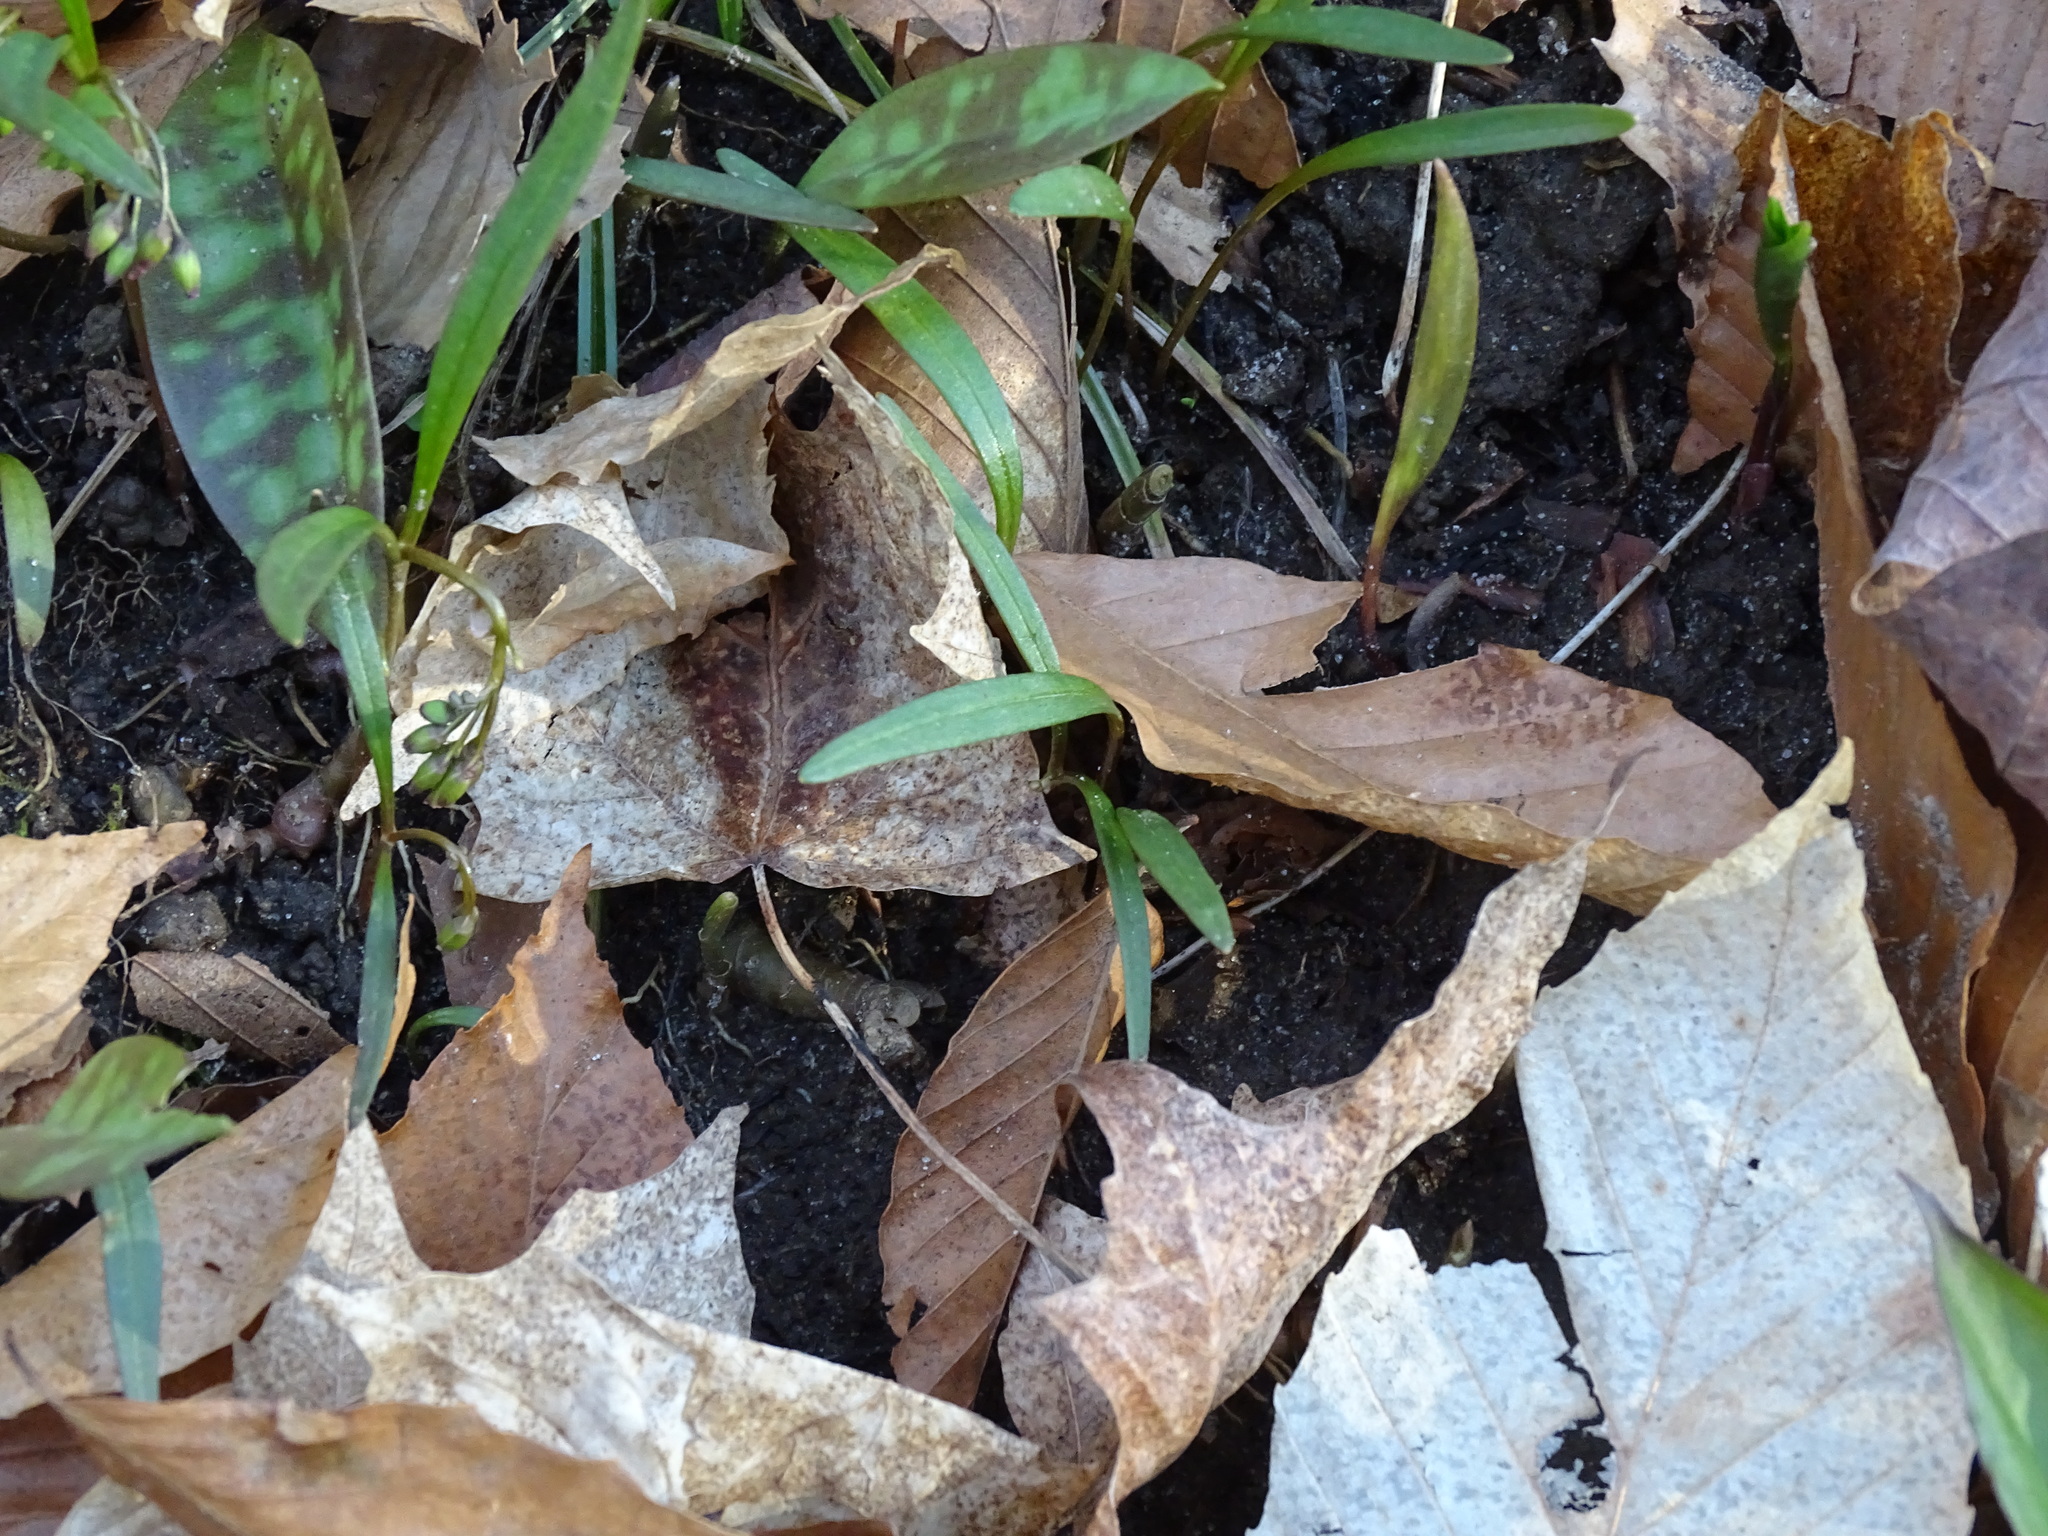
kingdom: Plantae
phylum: Tracheophyta
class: Magnoliopsida
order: Caryophyllales
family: Montiaceae
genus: Claytonia
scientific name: Claytonia virginica
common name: Virginia springbeauty
